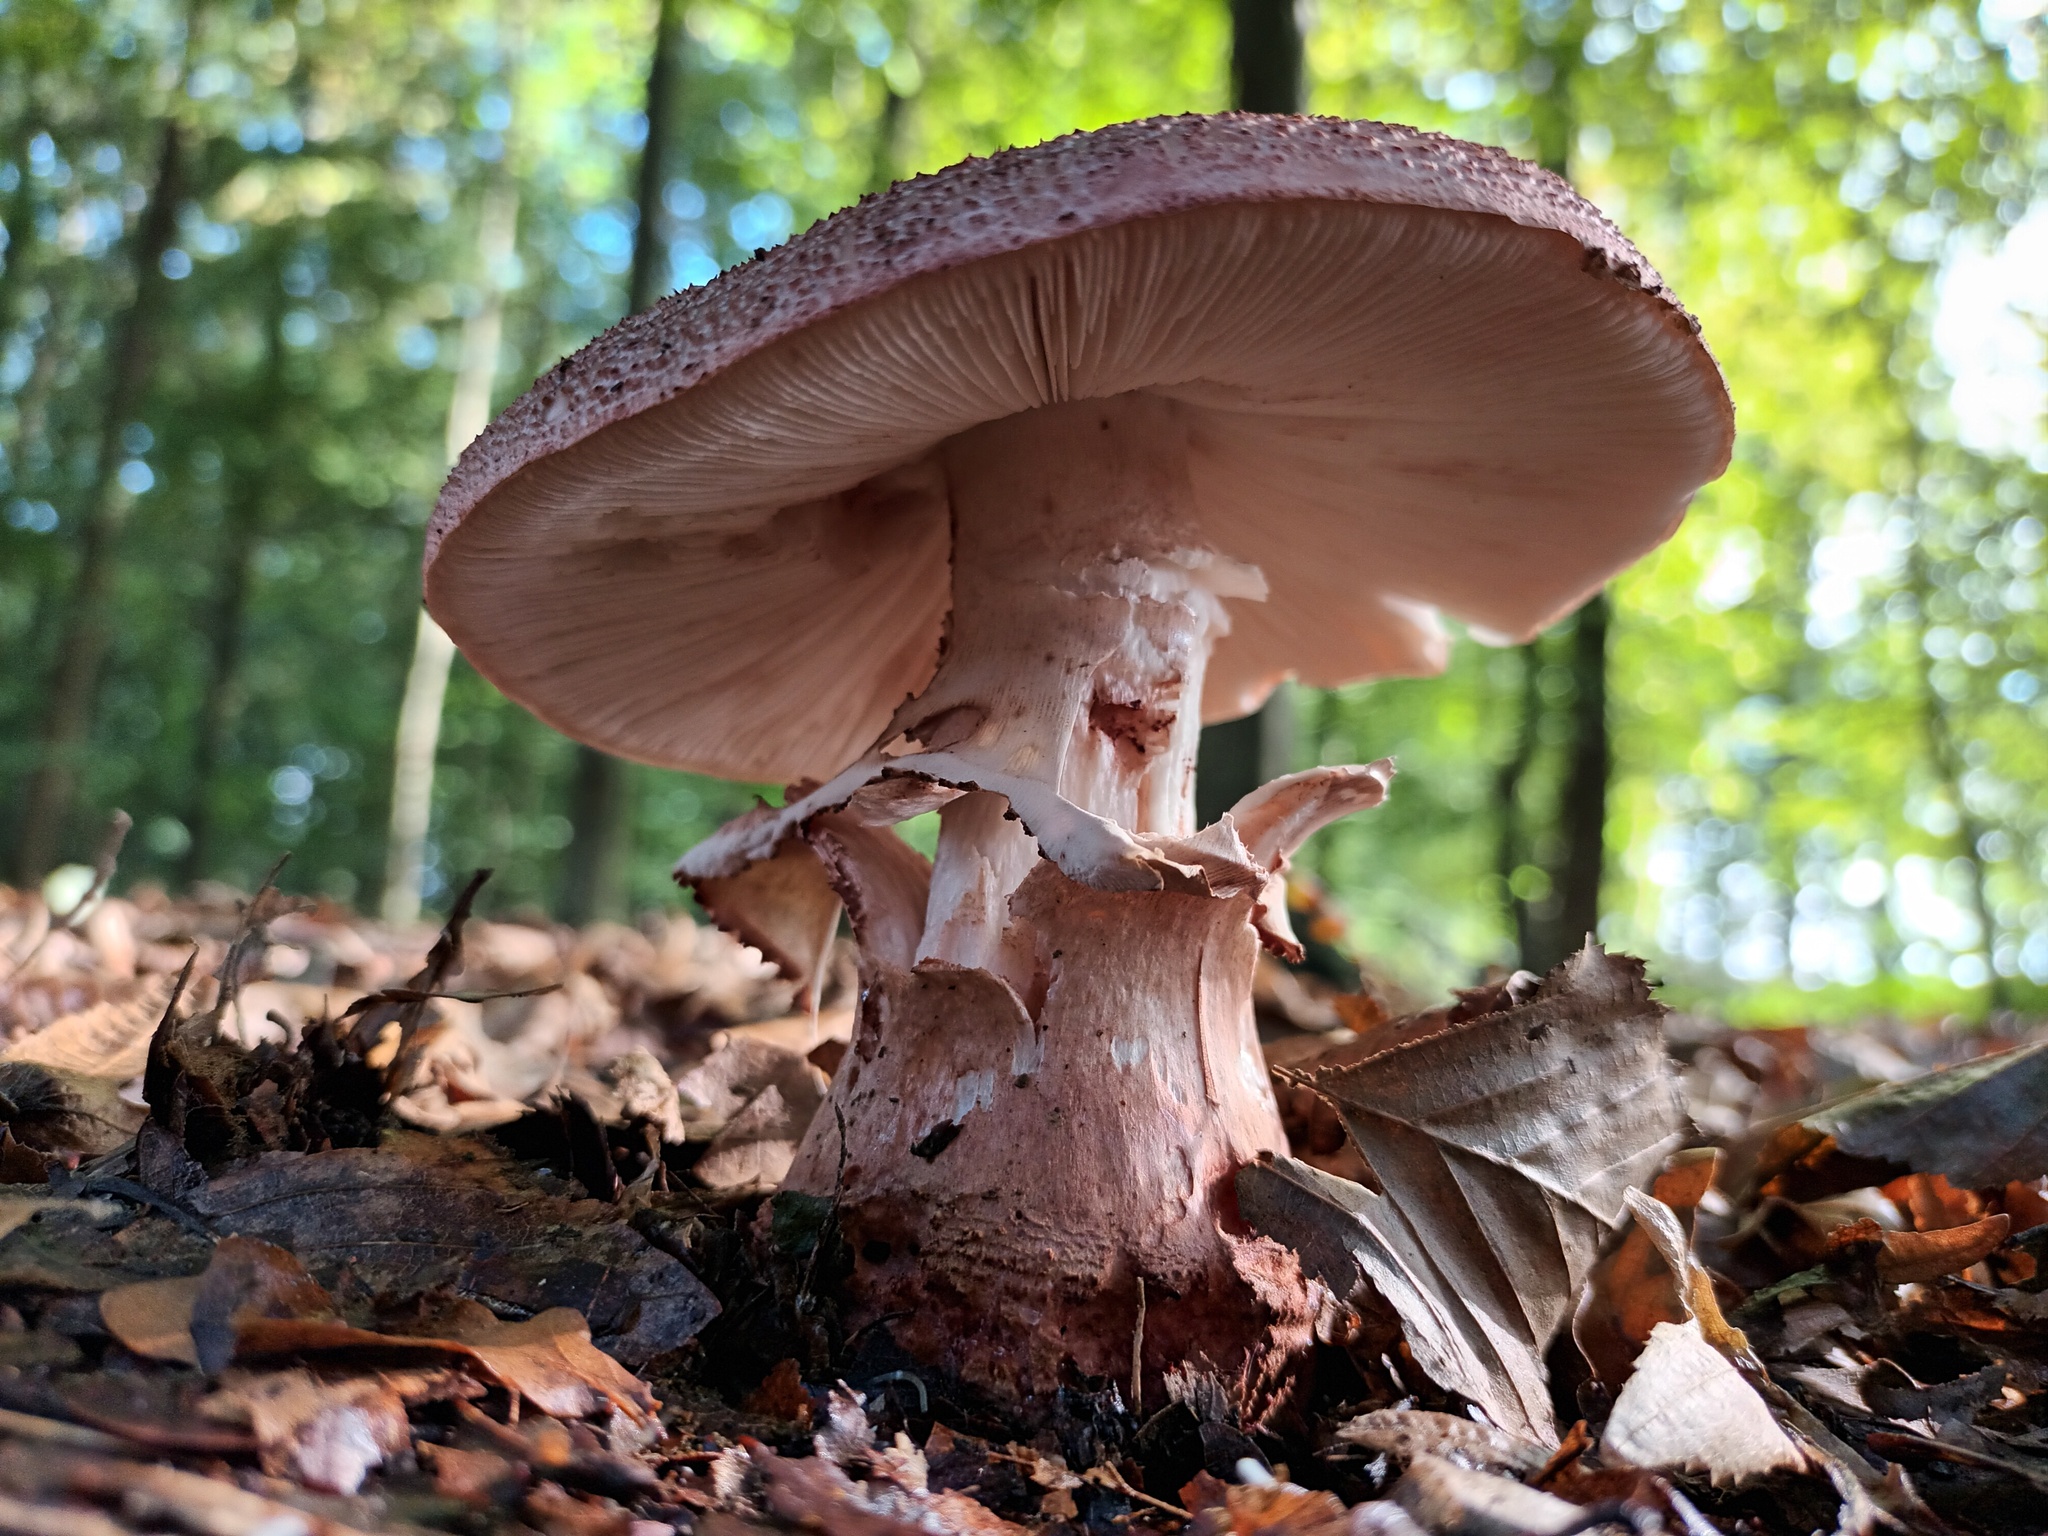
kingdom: Fungi
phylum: Basidiomycota
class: Agaricomycetes
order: Agaricales
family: Amanitaceae
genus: Amanita
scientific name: Amanita rubescens
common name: Blusher
